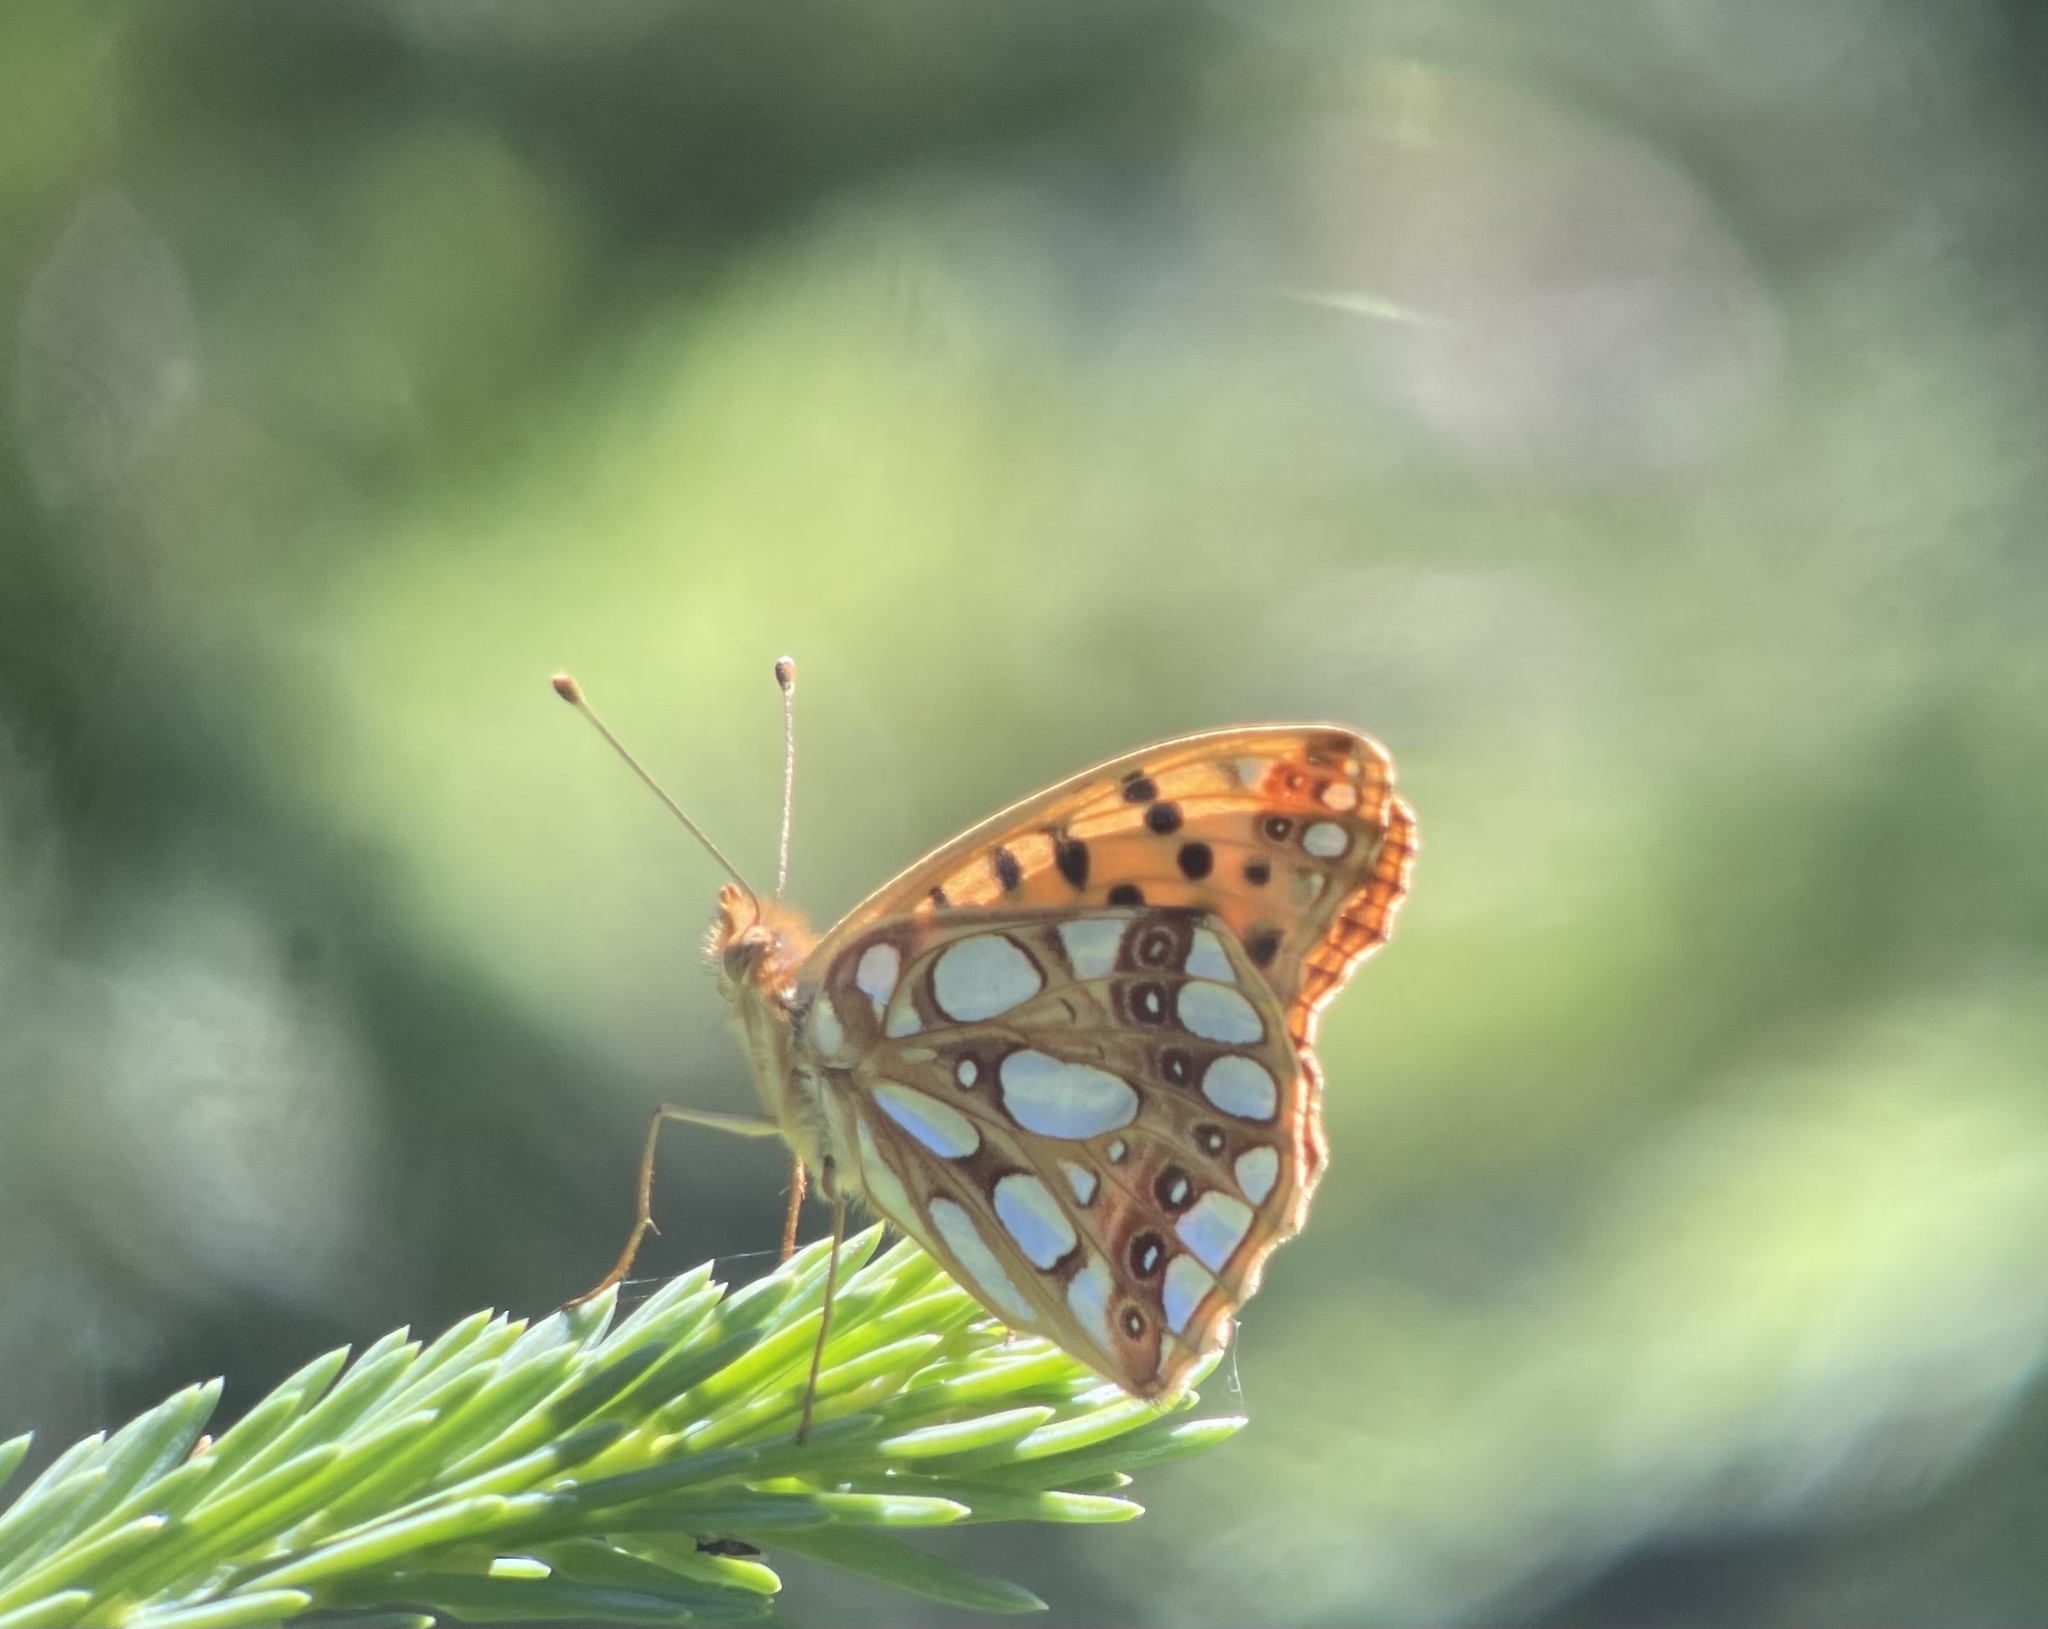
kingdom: Animalia
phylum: Arthropoda
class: Insecta
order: Lepidoptera
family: Nymphalidae
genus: Issoria
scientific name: Issoria lathonia
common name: Queen of spain fritillary
